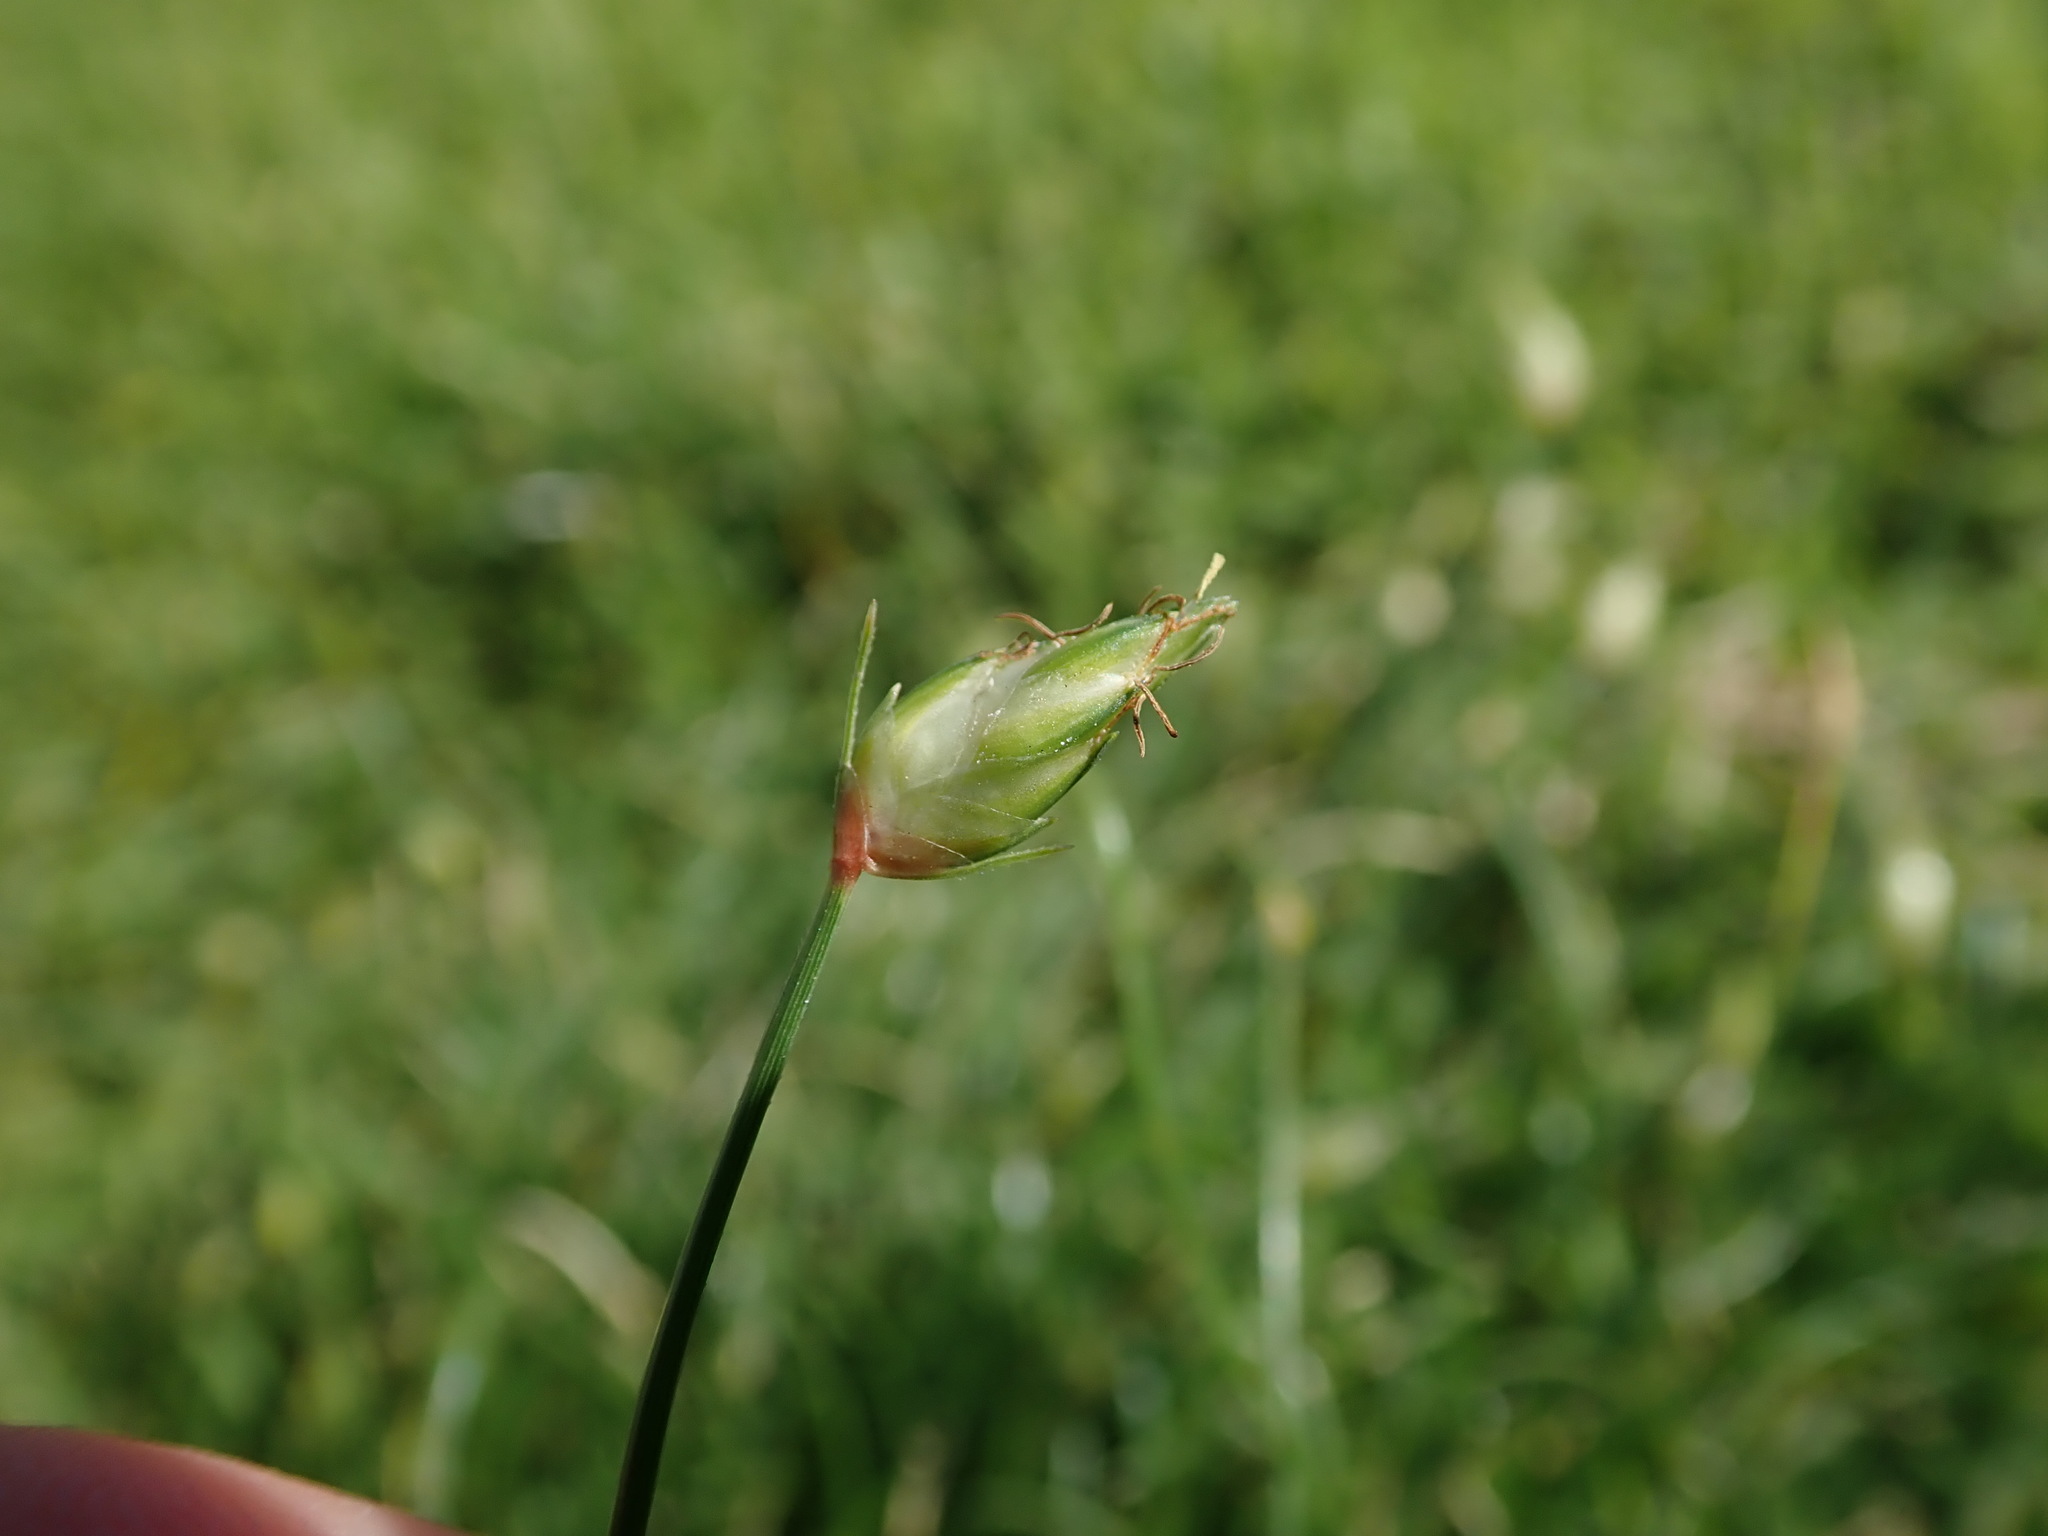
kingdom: Plantae
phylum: Tracheophyta
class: Liliopsida
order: Poales
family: Cyperaceae
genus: Abildgaardia
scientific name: Abildgaardia ovata
